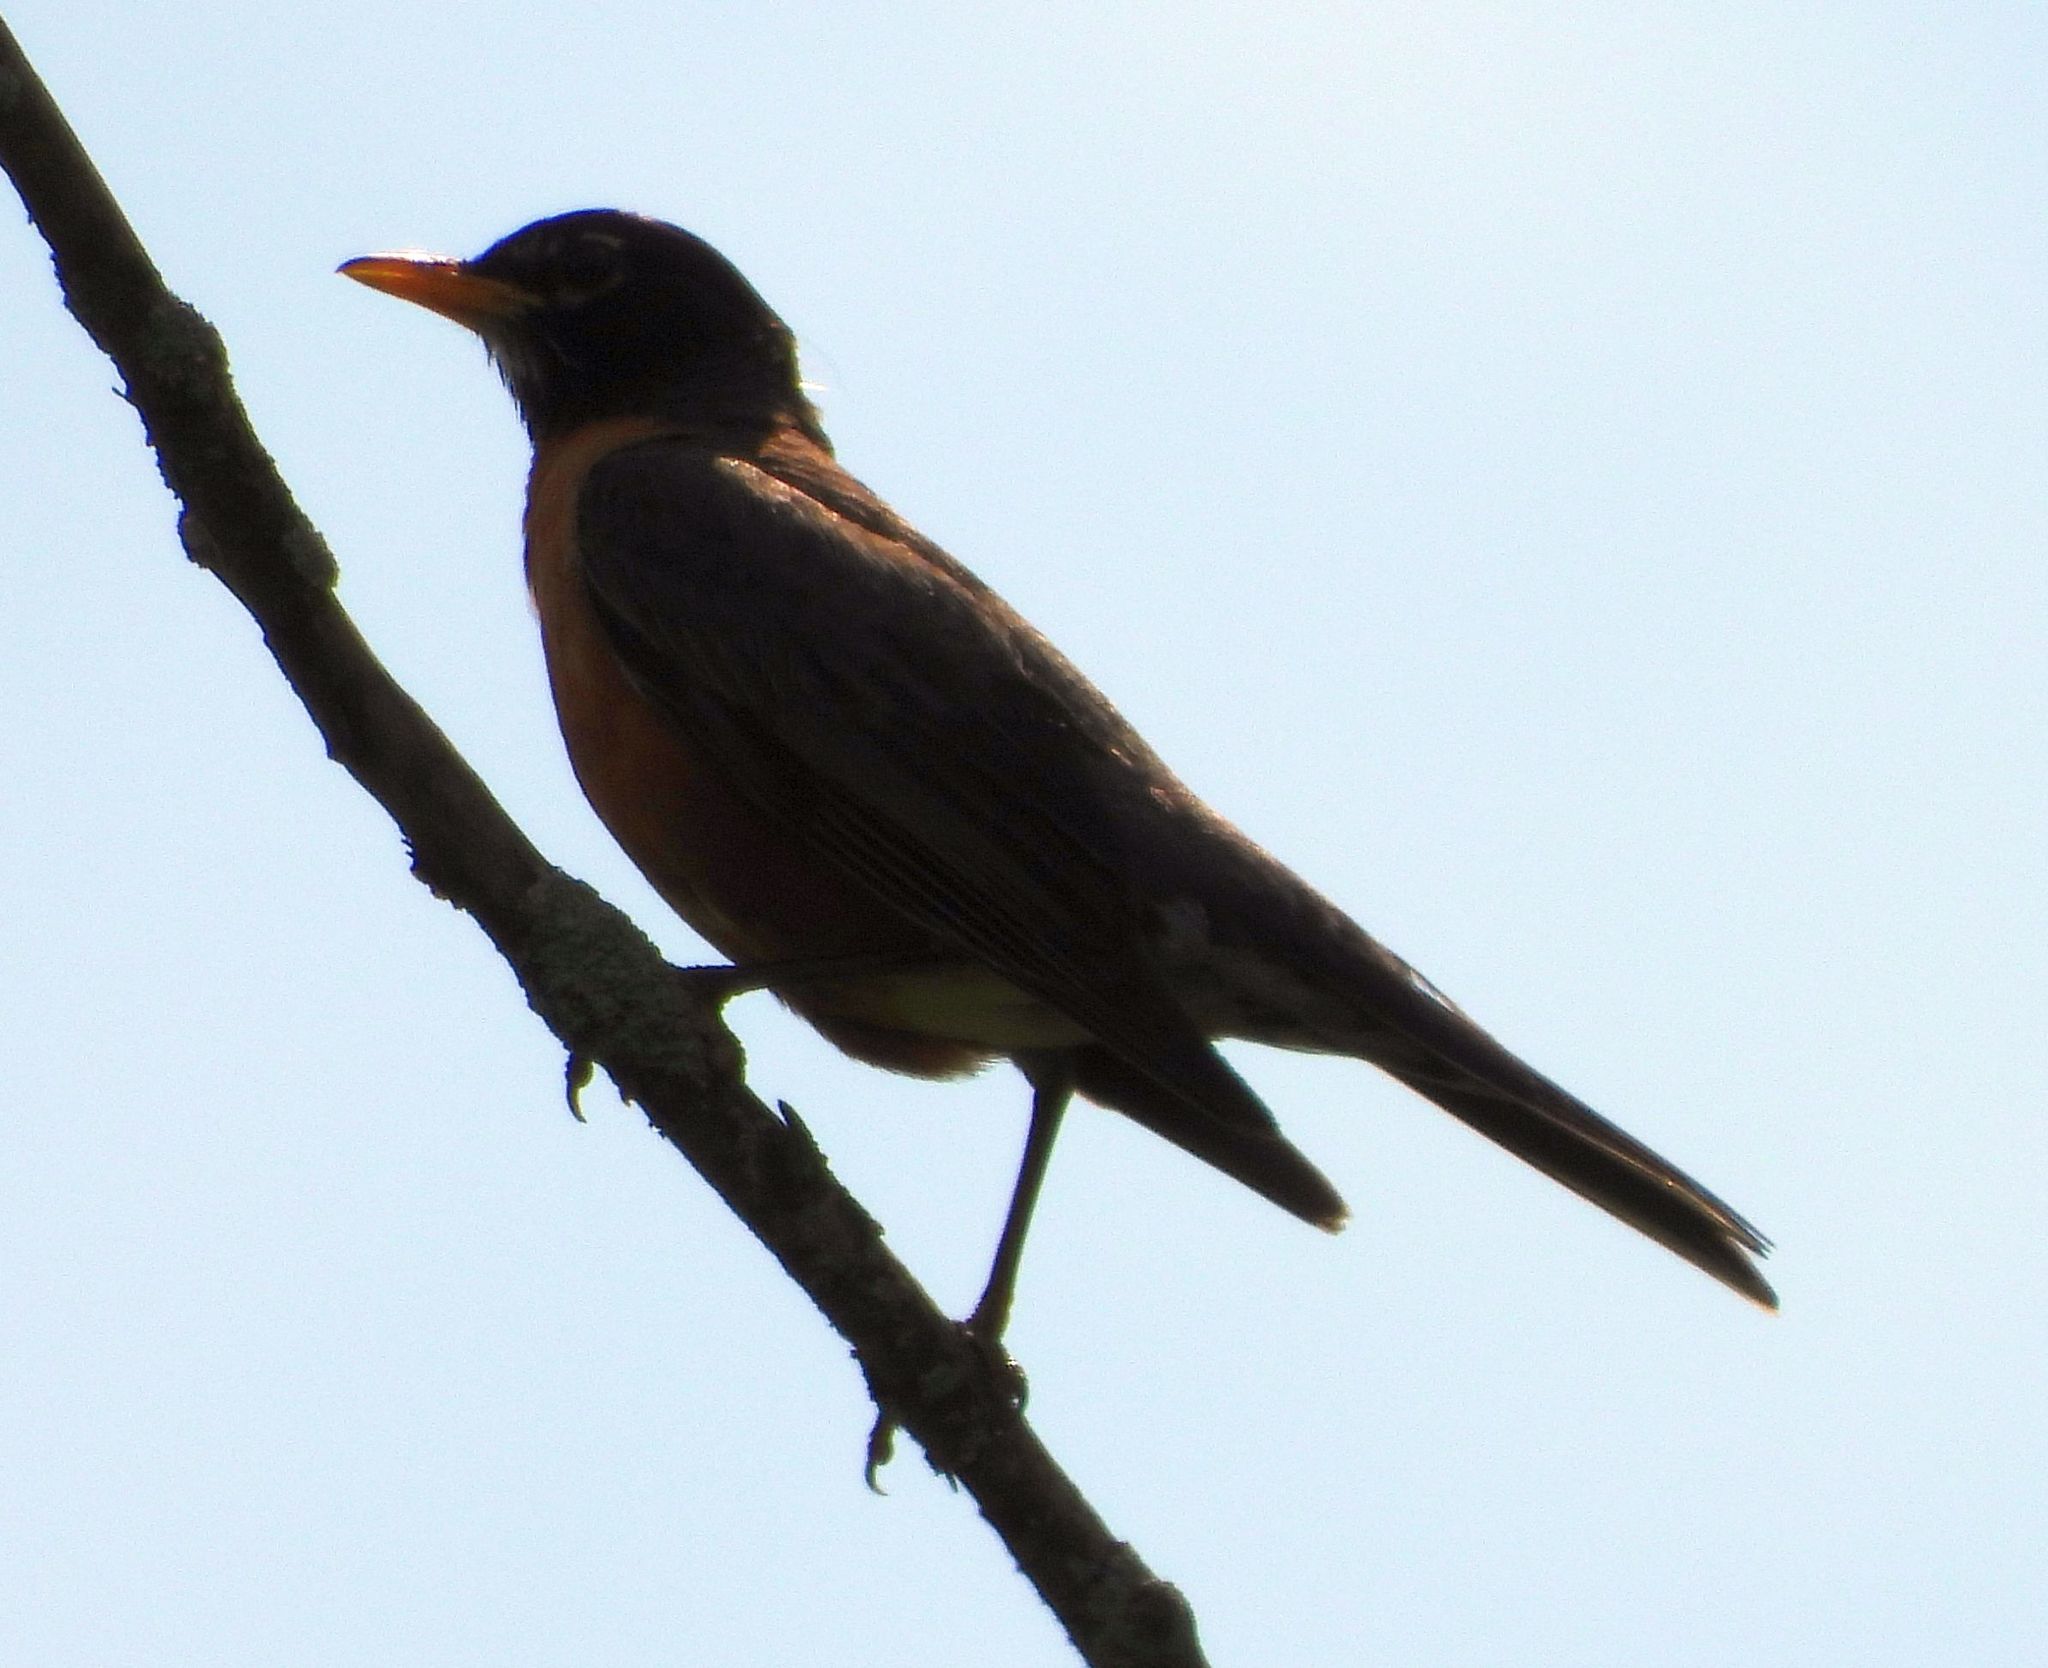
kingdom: Animalia
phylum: Chordata
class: Aves
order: Passeriformes
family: Turdidae
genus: Turdus
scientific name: Turdus migratorius
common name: American robin
